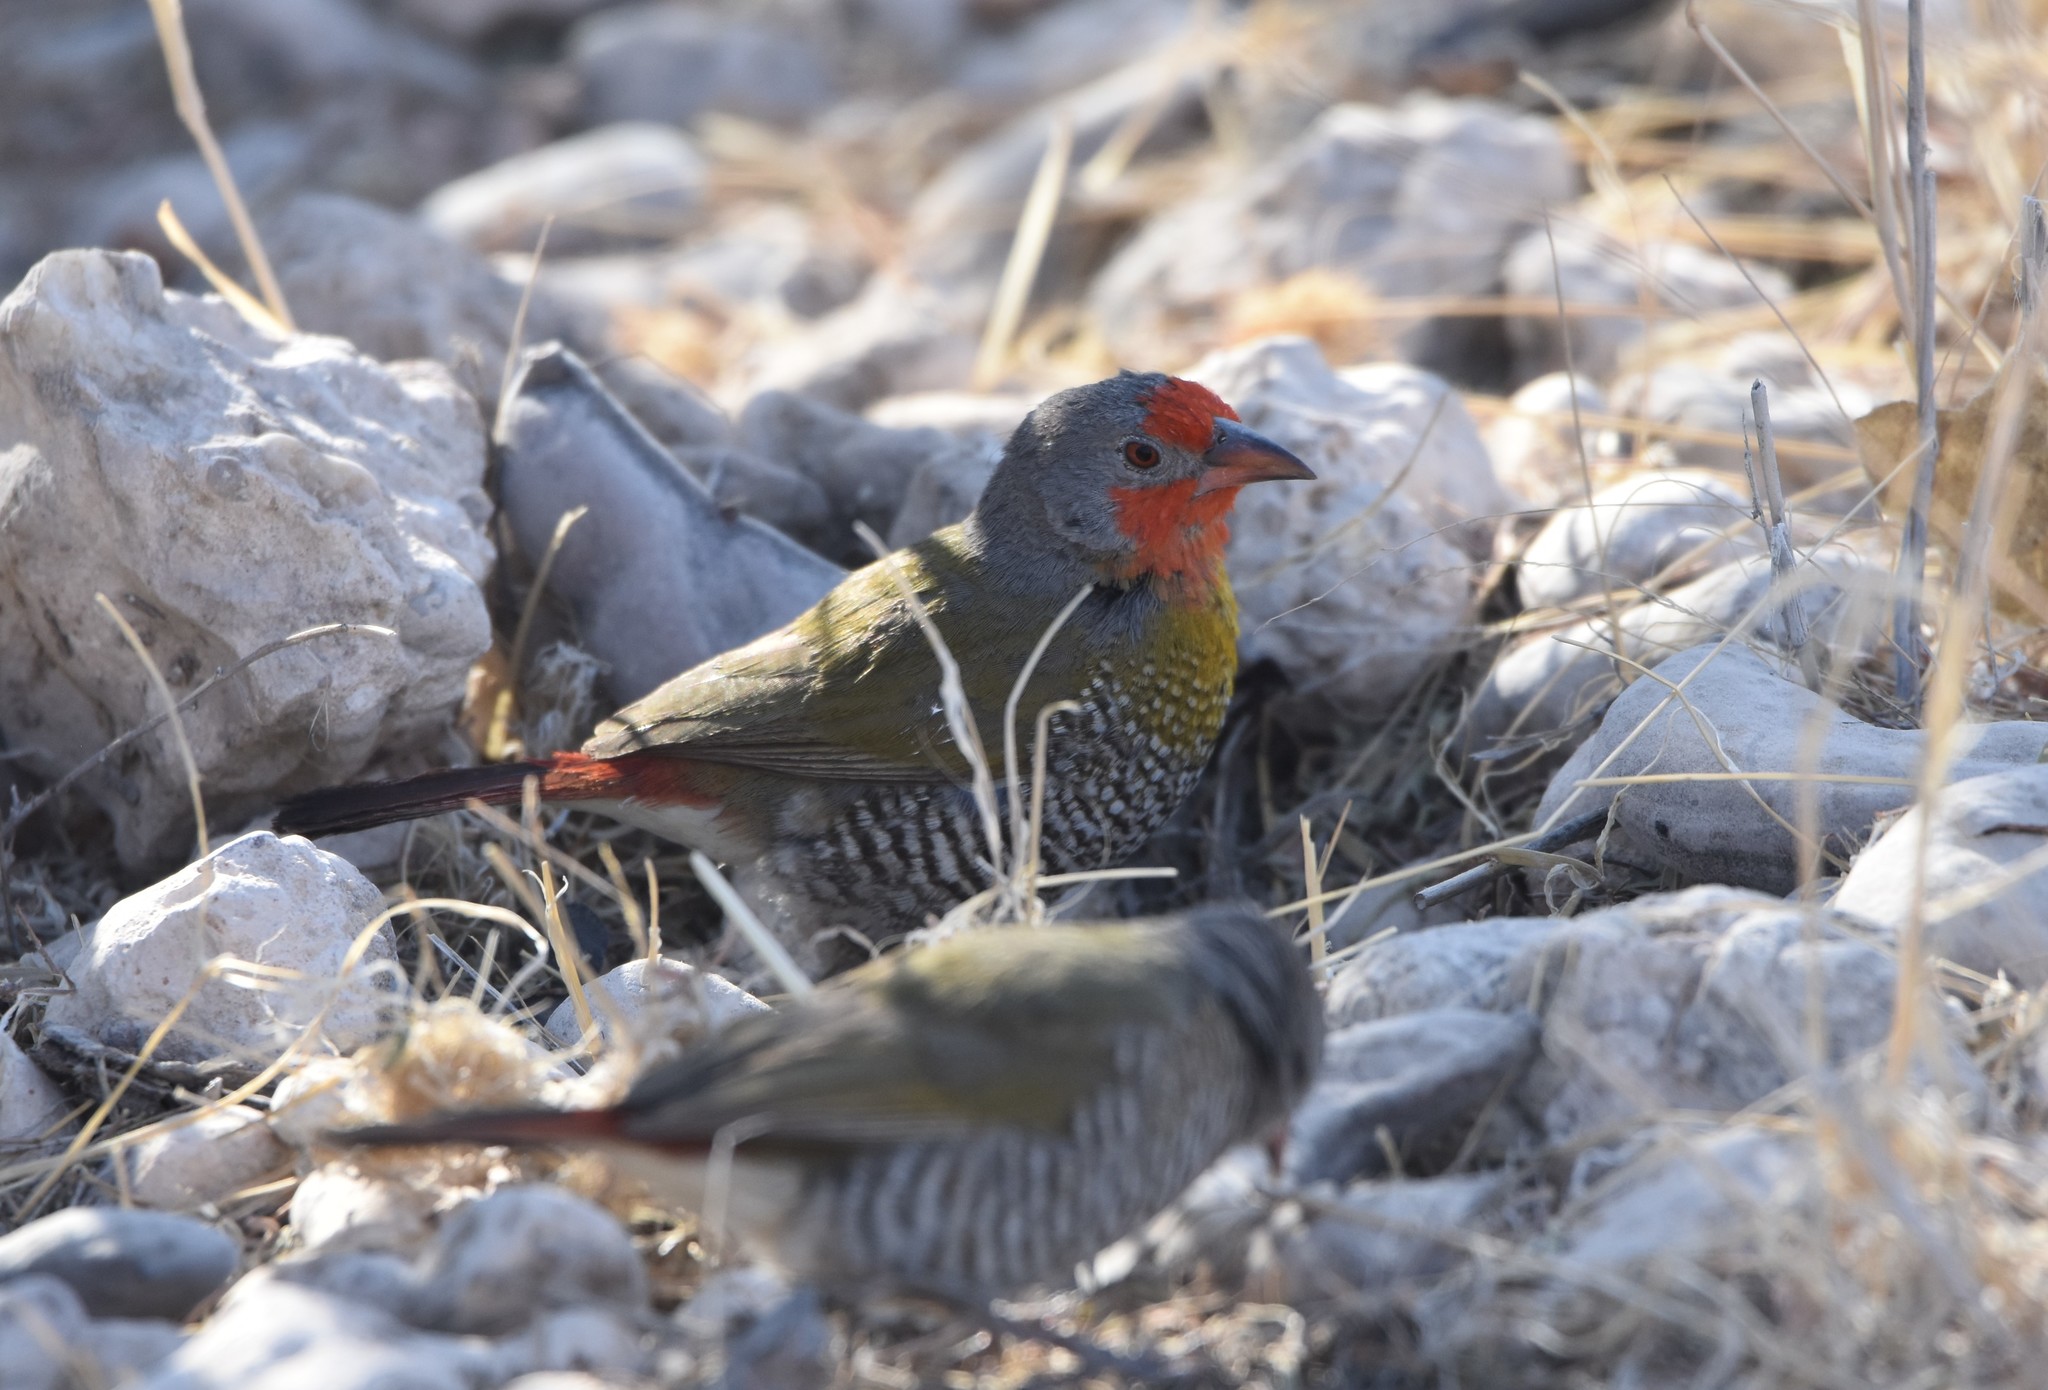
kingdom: Animalia
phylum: Chordata
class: Aves
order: Passeriformes
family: Estrildidae
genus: Pytilia
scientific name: Pytilia melba
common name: Green-winged pytilia
